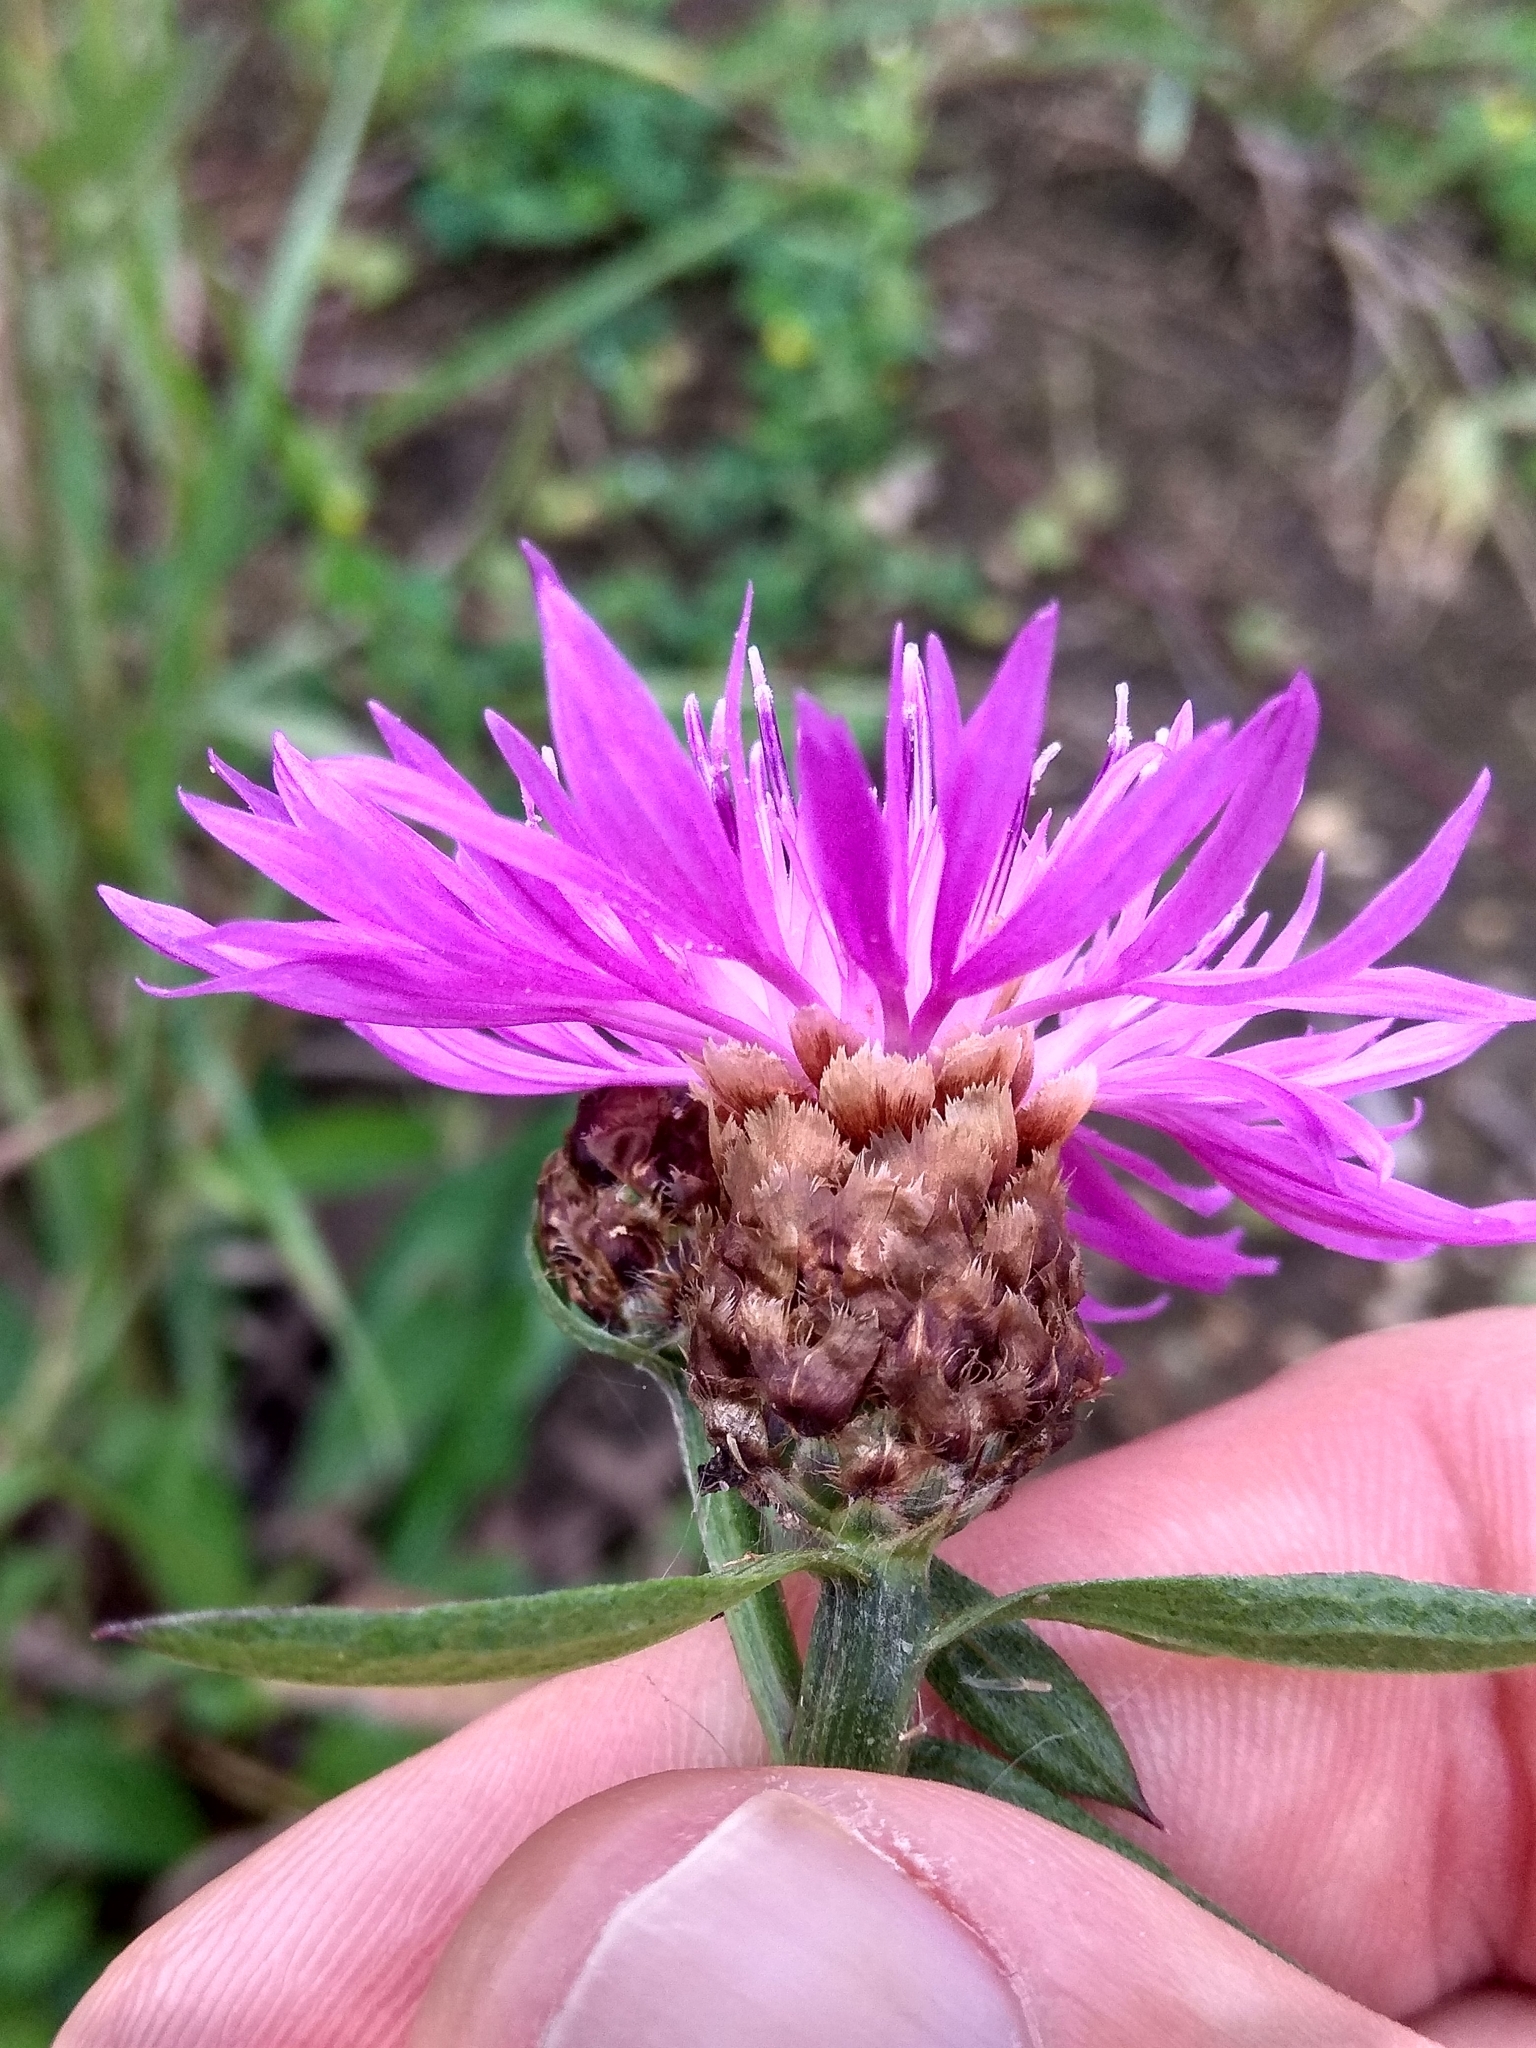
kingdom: Plantae
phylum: Tracheophyta
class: Magnoliopsida
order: Asterales
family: Asteraceae
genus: Centaurea
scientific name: Centaurea jacea
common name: Brown knapweed
